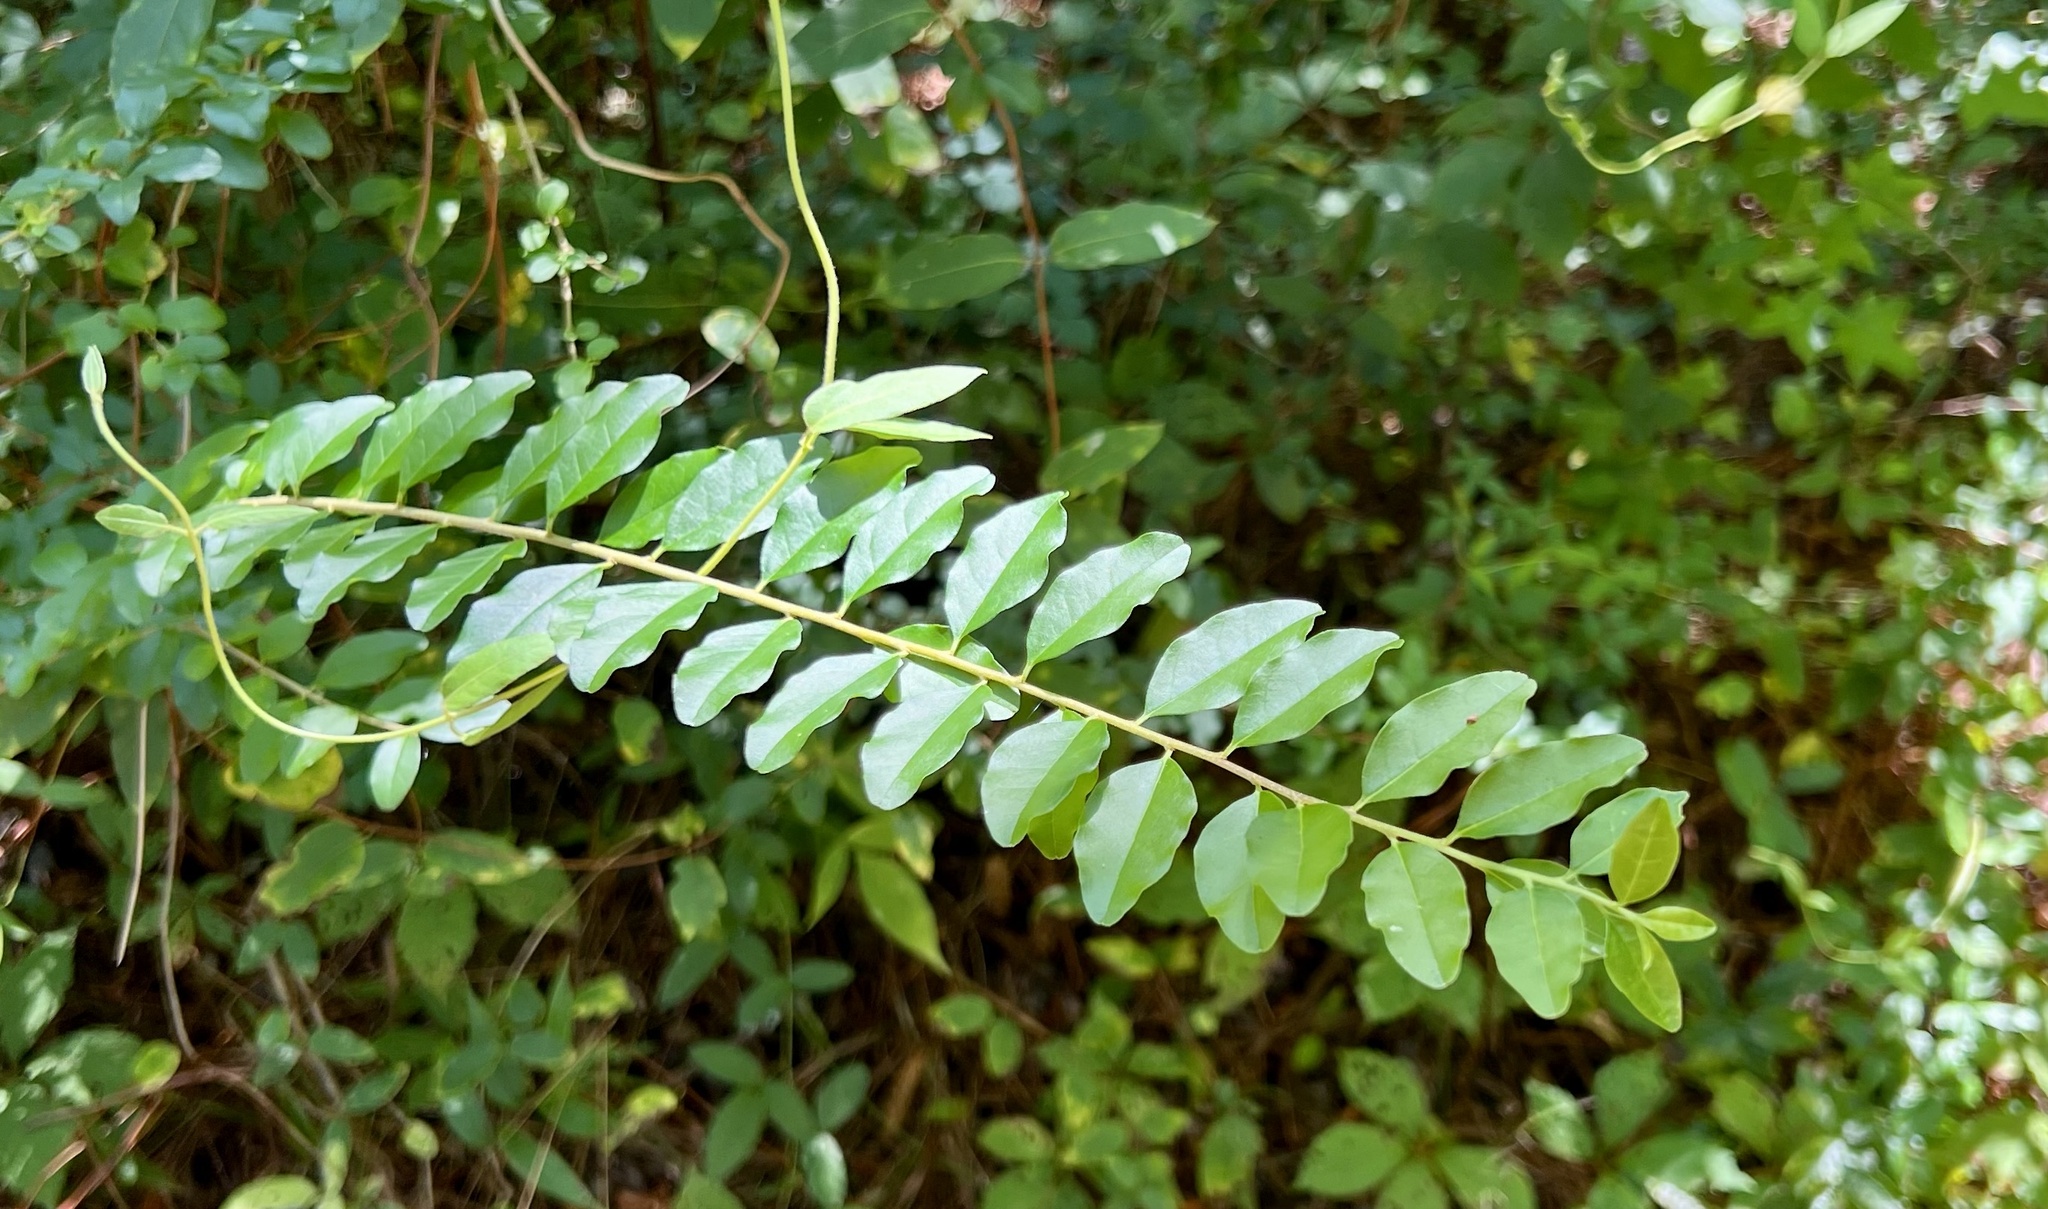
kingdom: Plantae
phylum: Tracheophyta
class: Magnoliopsida
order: Lamiales
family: Oleaceae
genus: Ligustrum
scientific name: Ligustrum sinense
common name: Chinese privet
